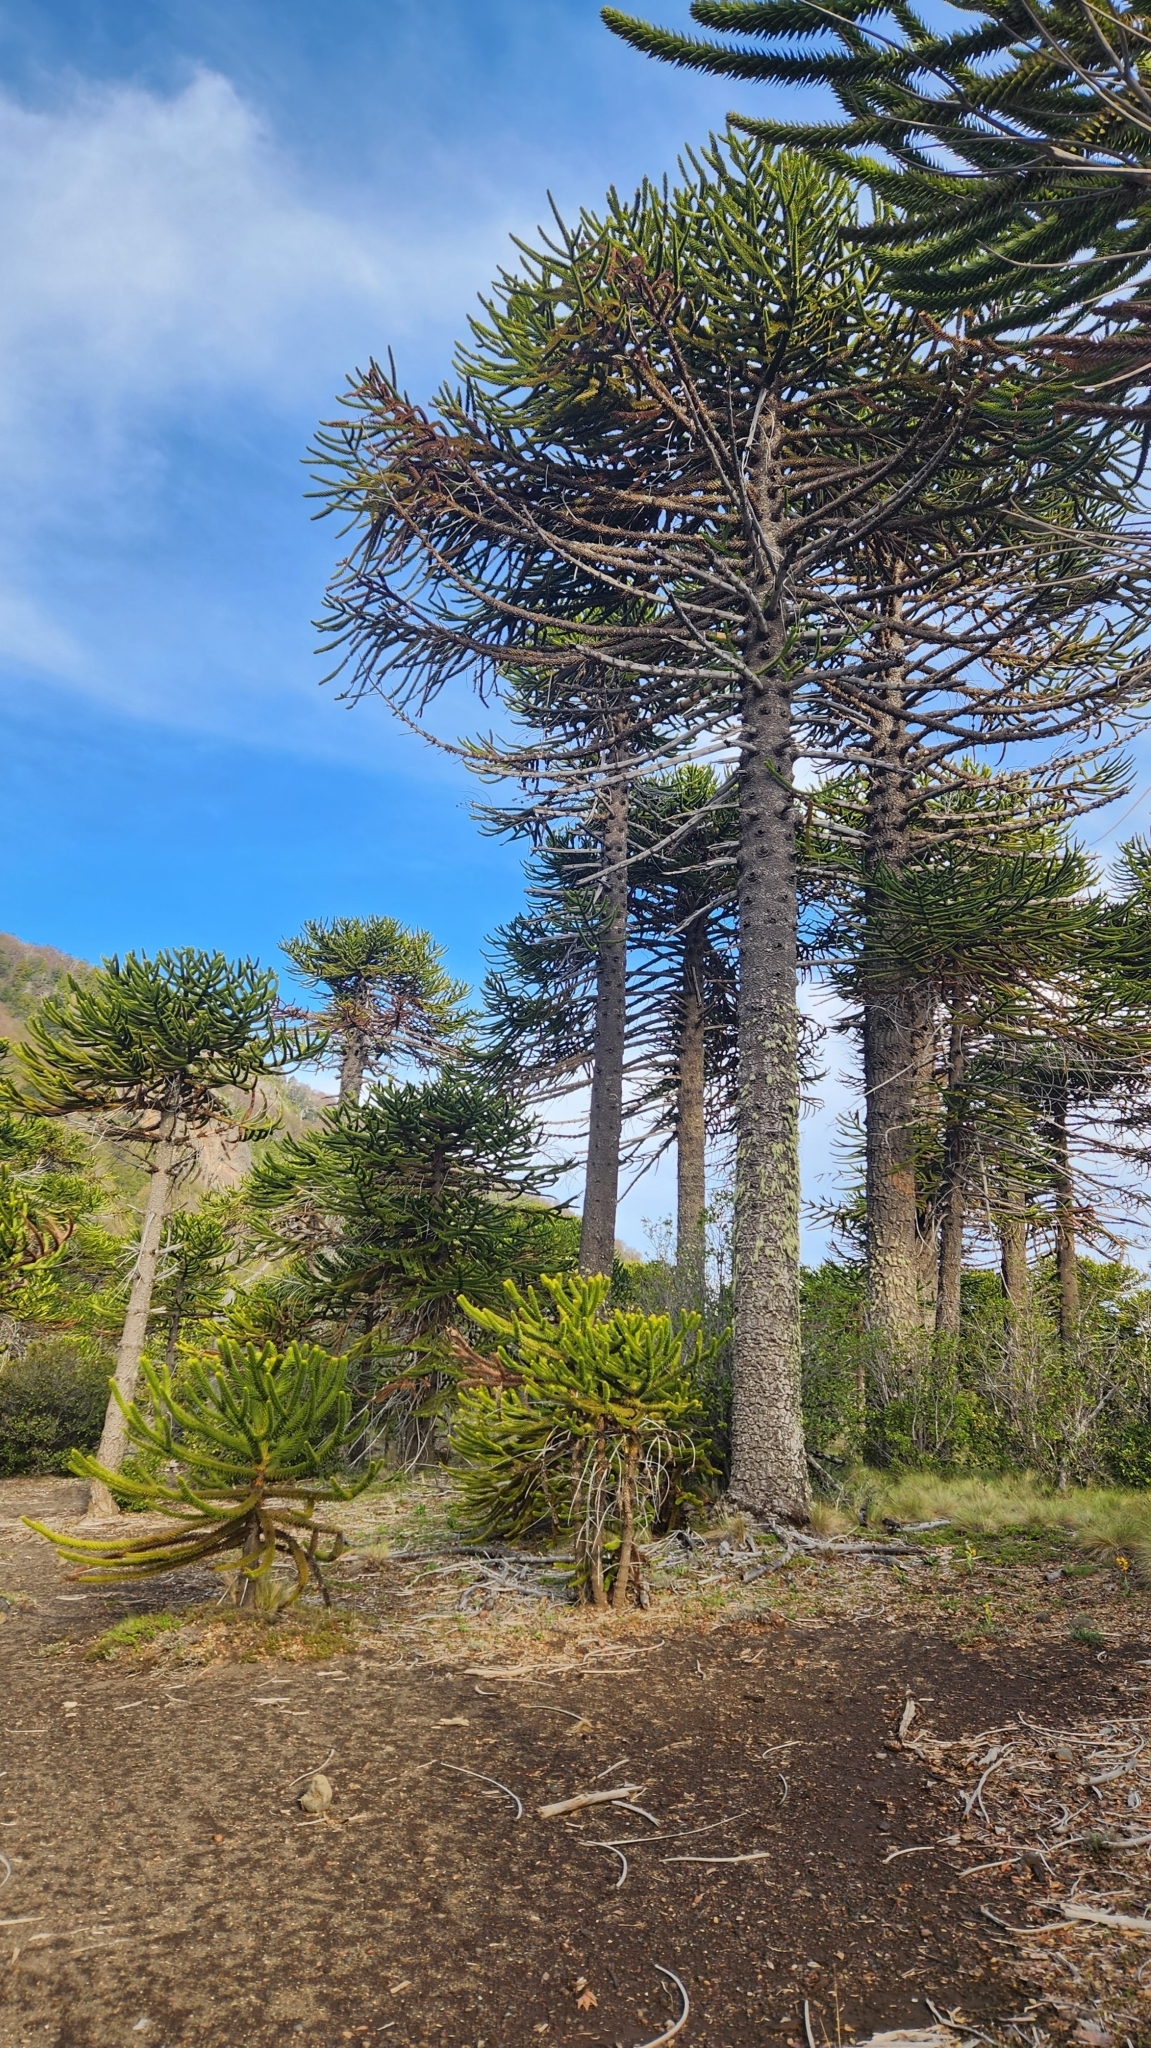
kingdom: Plantae
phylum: Tracheophyta
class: Pinopsida
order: Pinales
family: Araucariaceae
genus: Araucaria
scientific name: Araucaria araucana
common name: Monkey-puzzle
